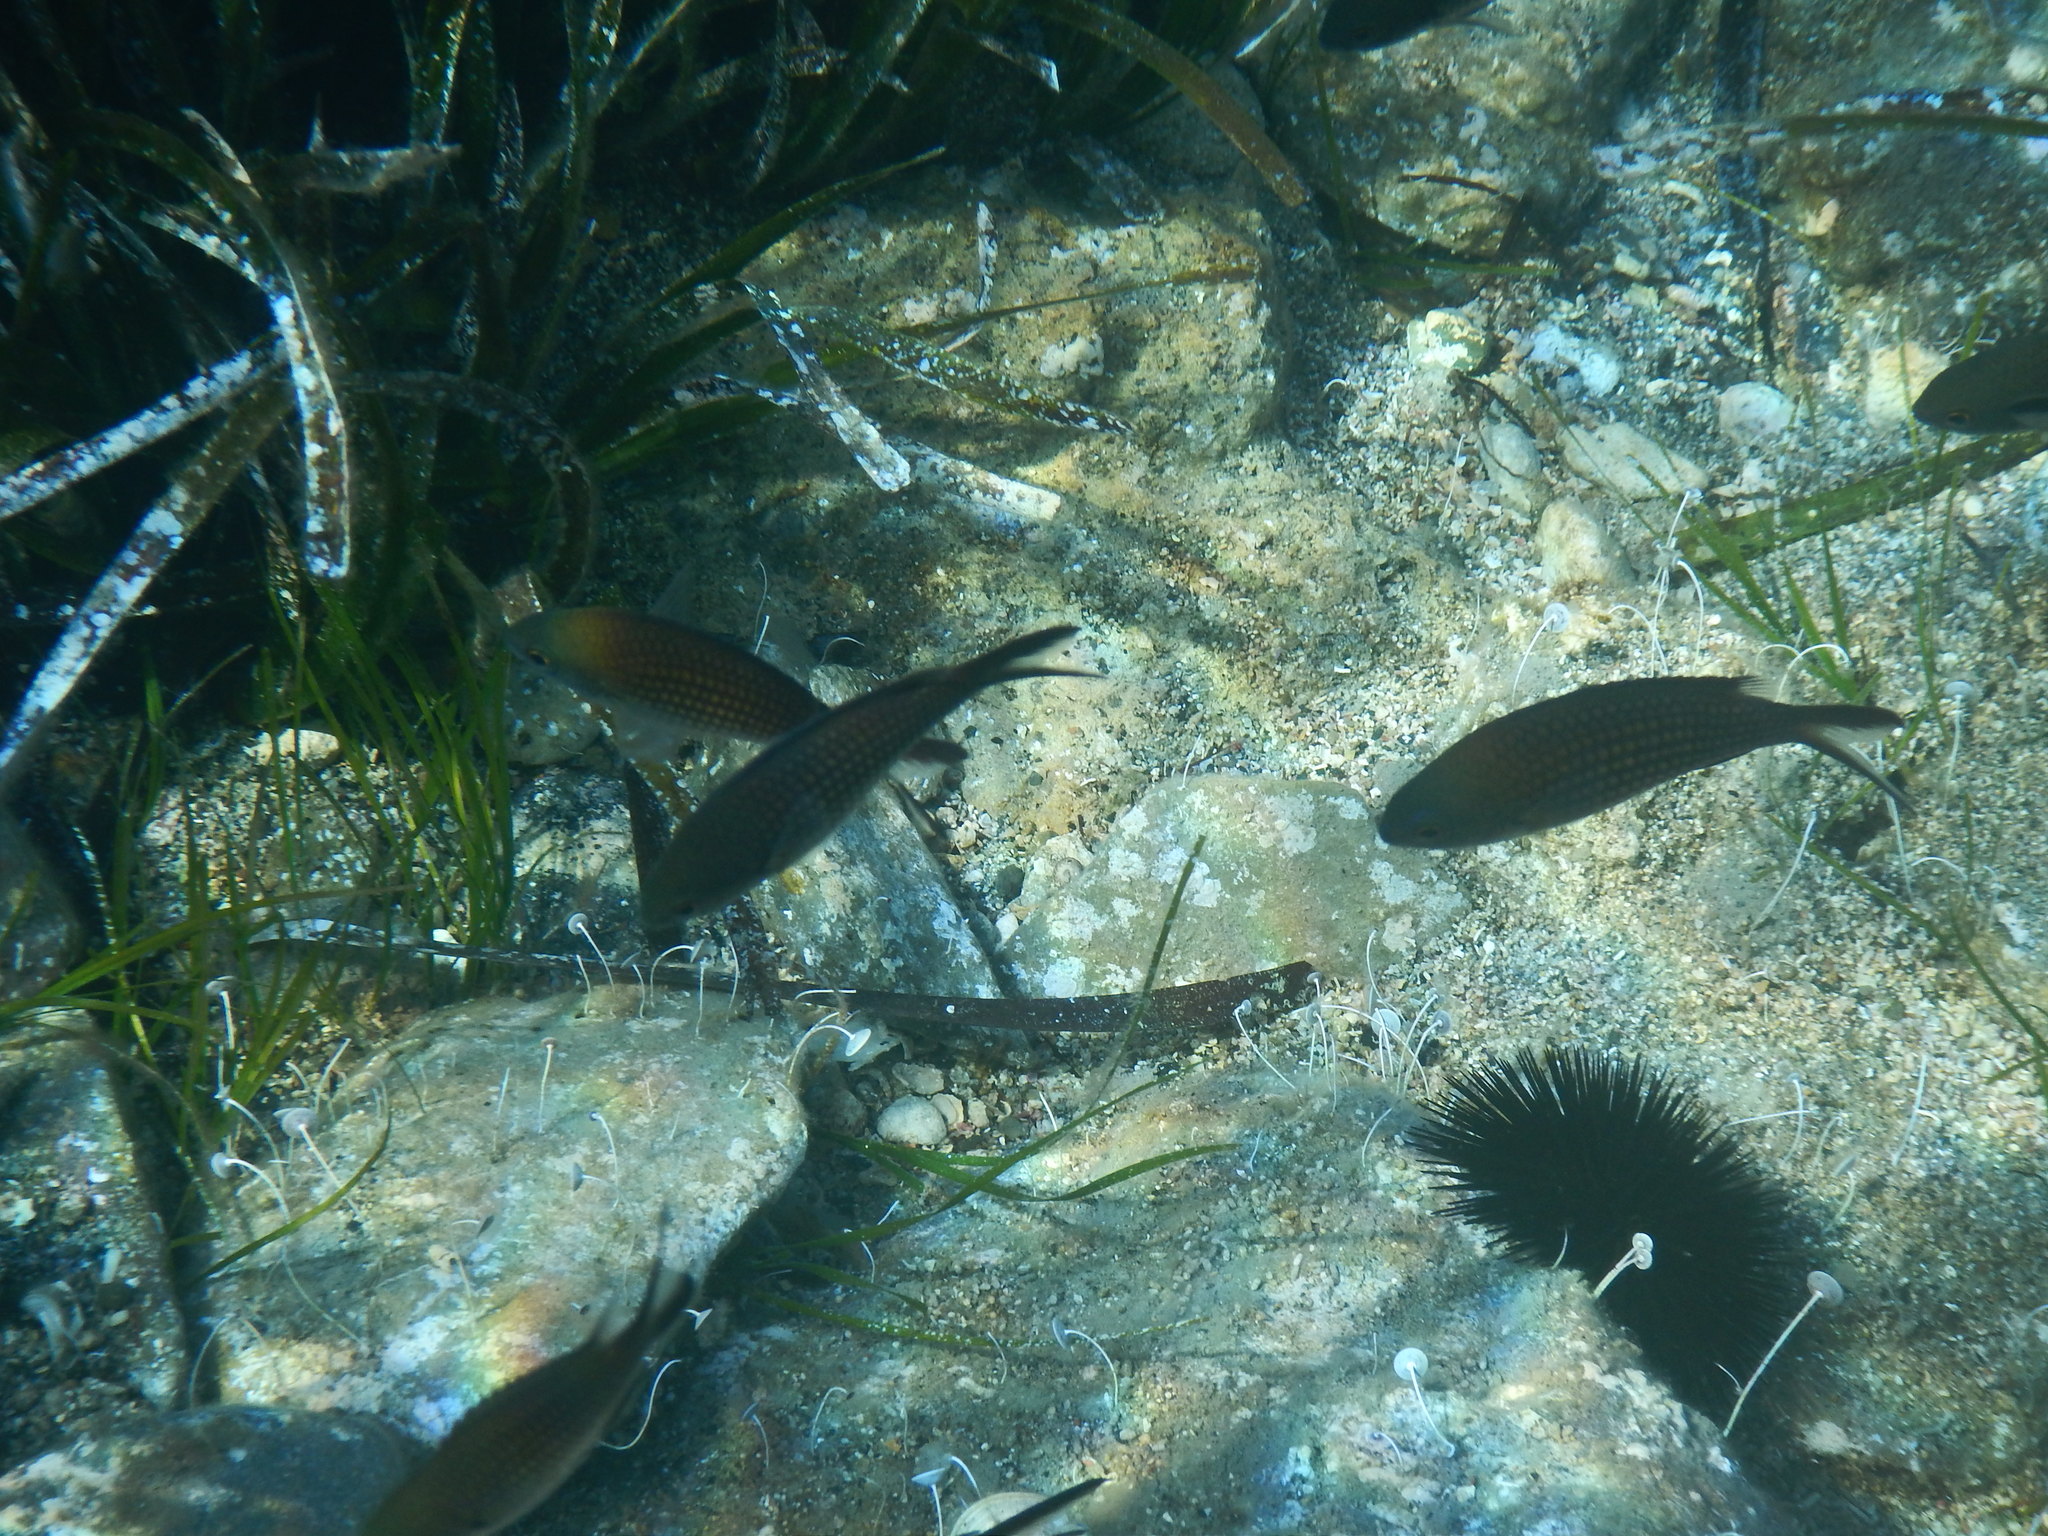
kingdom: Animalia
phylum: Chordata
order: Perciformes
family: Pomacentridae
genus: Chromis
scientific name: Chromis chromis
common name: Damselfish
